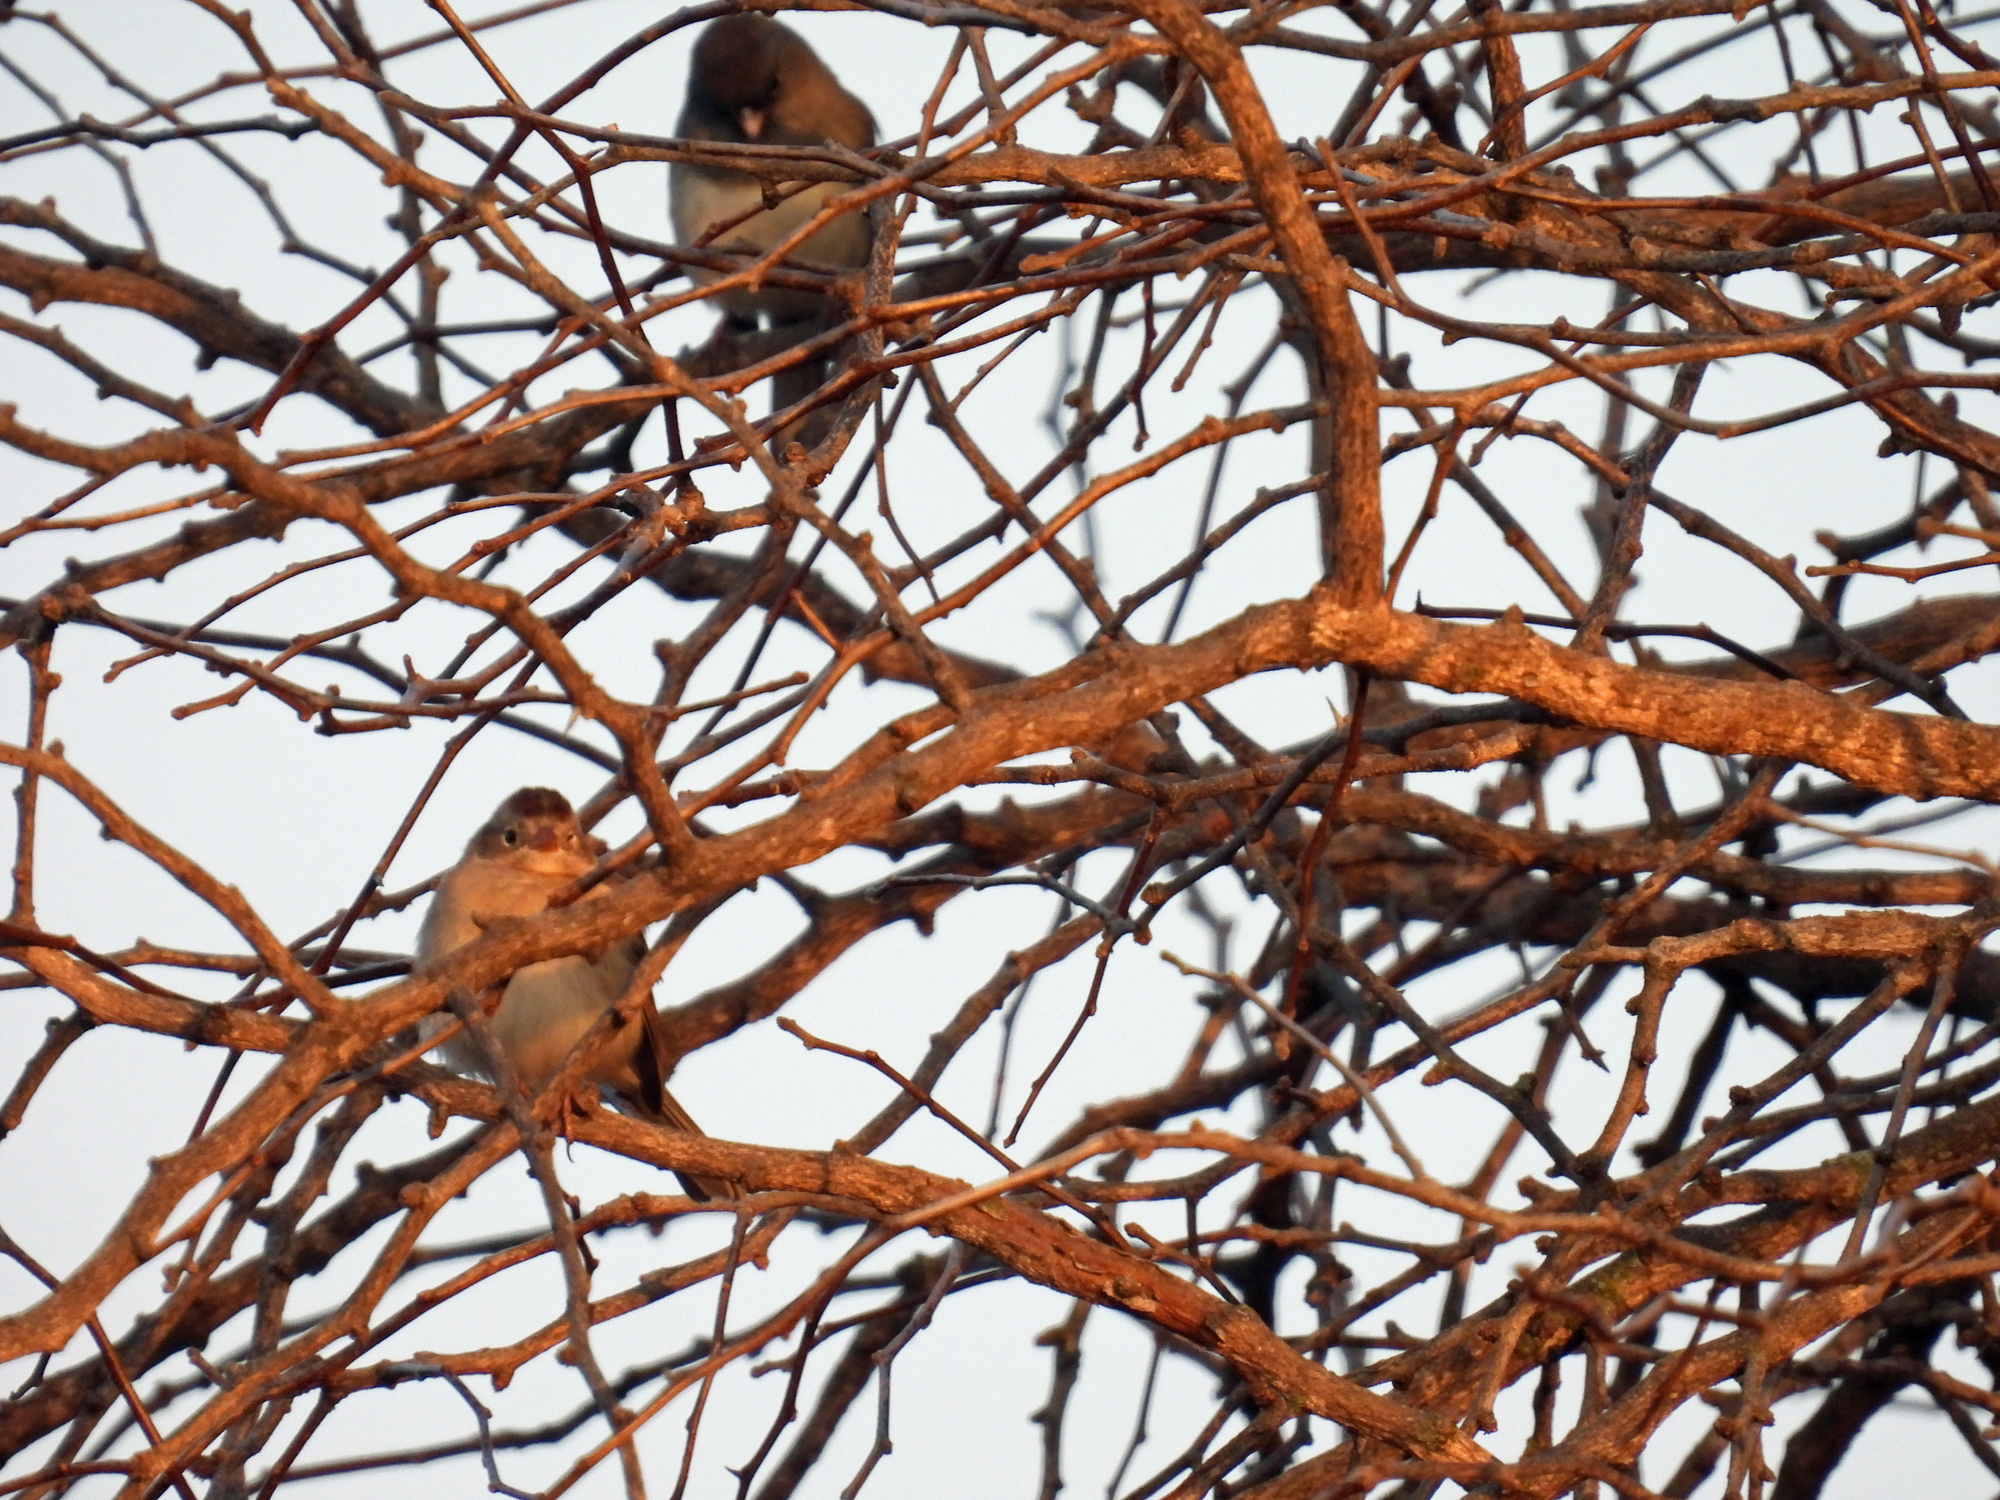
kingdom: Animalia
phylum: Chordata
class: Aves
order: Passeriformes
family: Passerellidae
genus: Spizella
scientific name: Spizella pusilla
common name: Field sparrow
